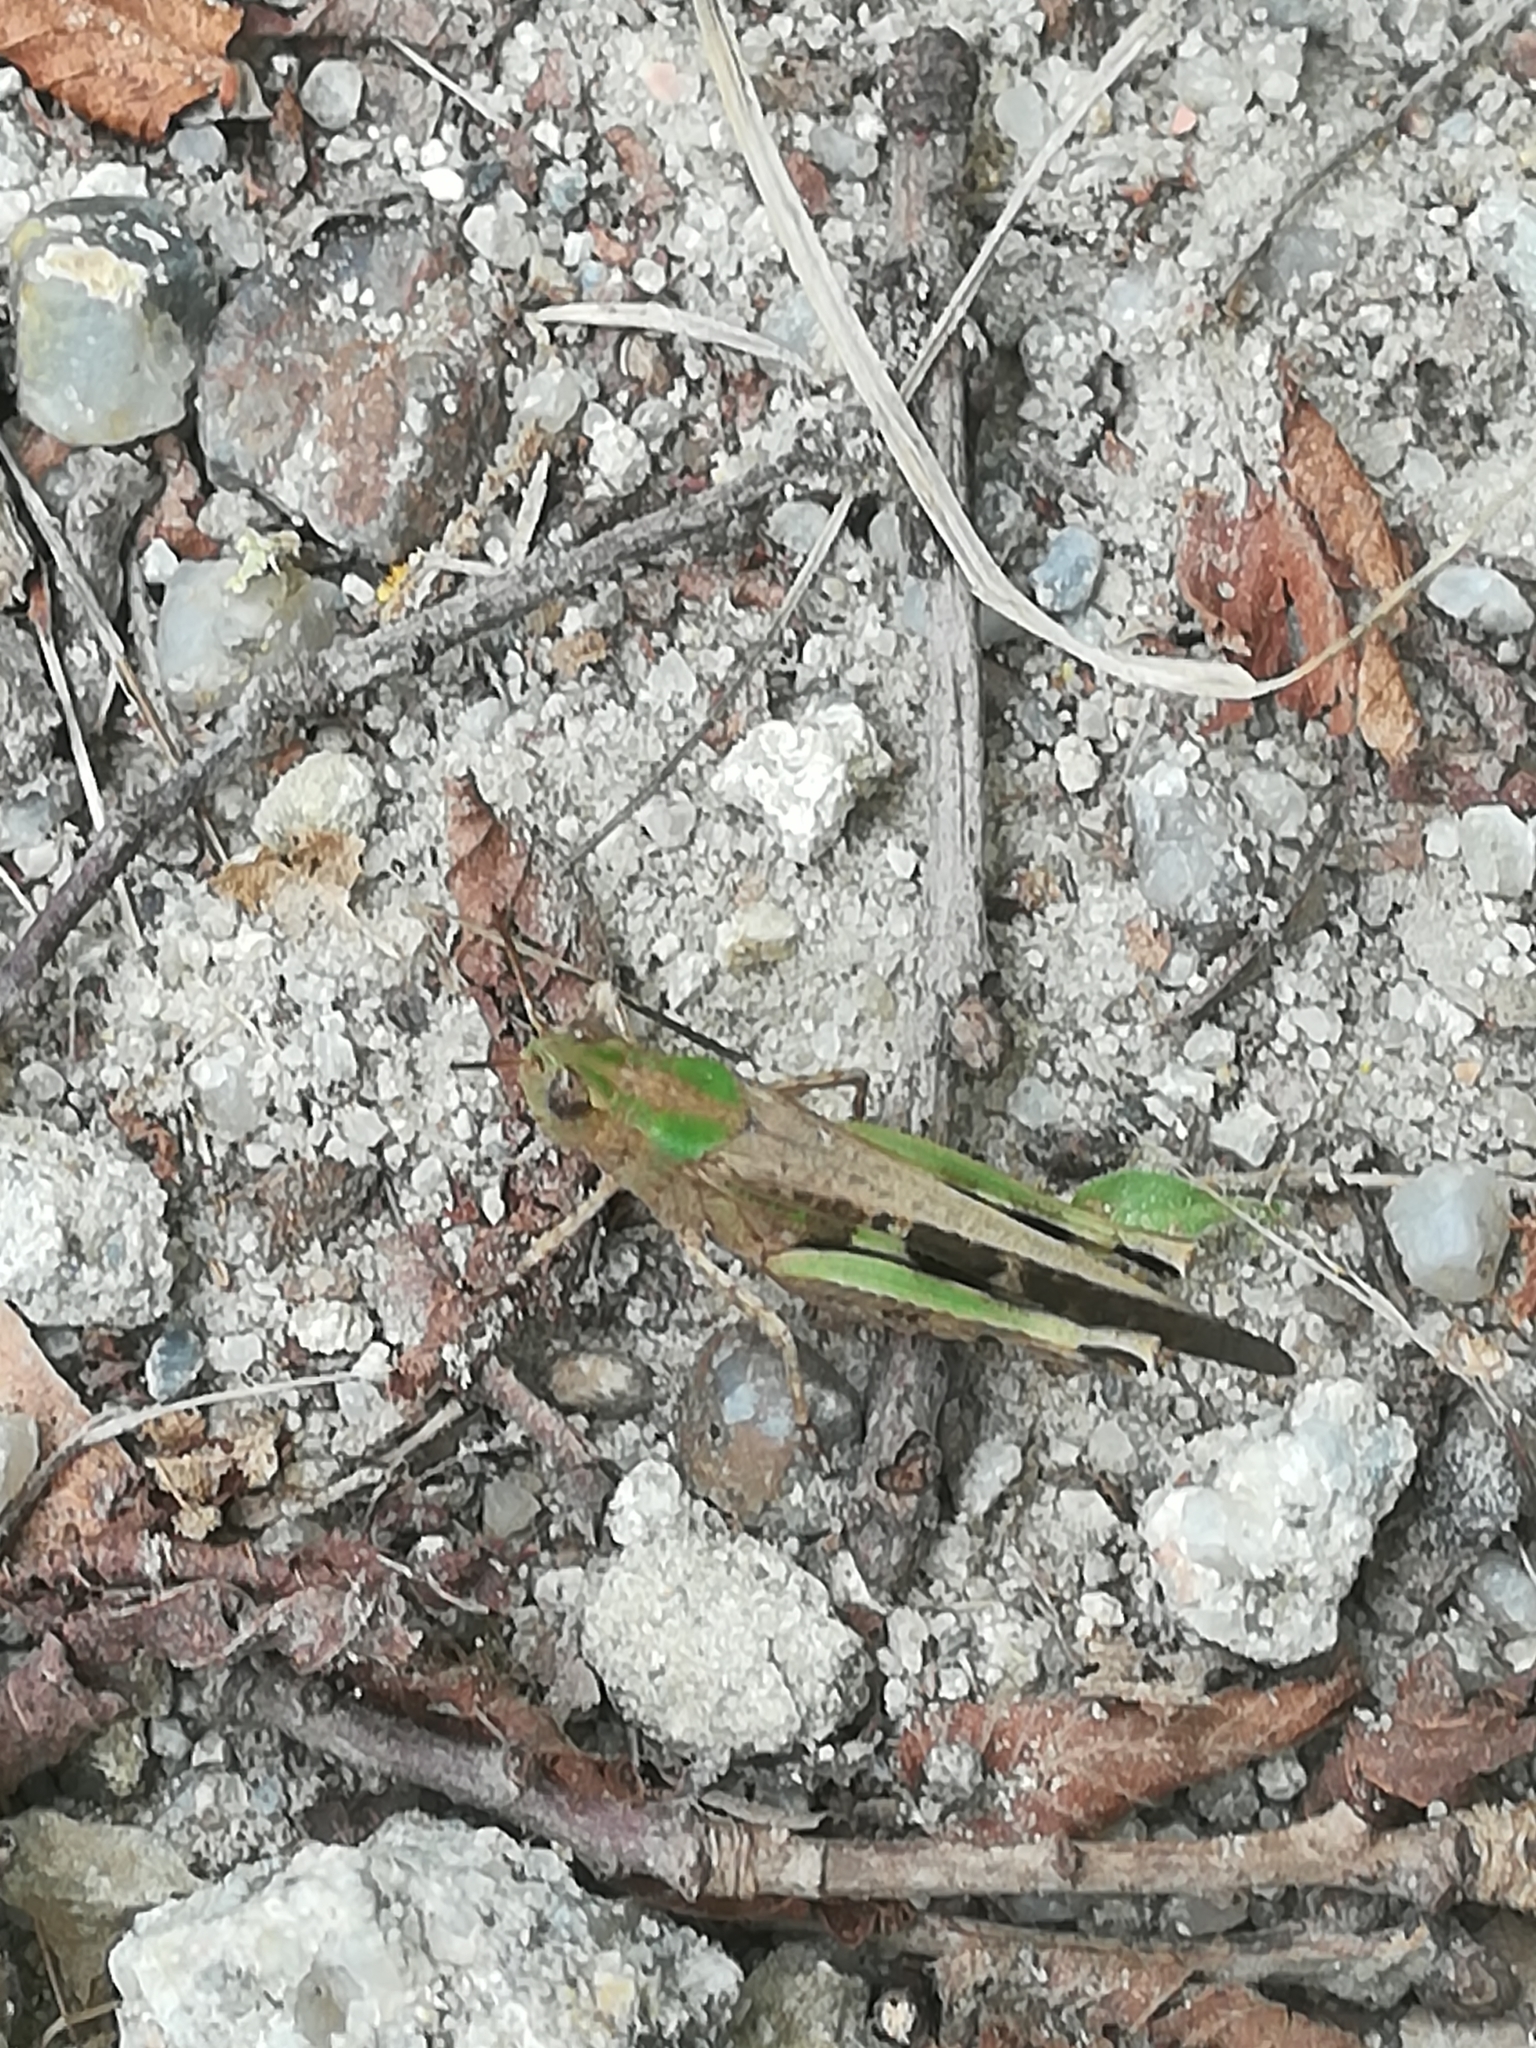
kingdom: Animalia
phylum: Arthropoda
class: Insecta
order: Orthoptera
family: Acrididae
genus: Aiolopus
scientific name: Aiolopus strepens
